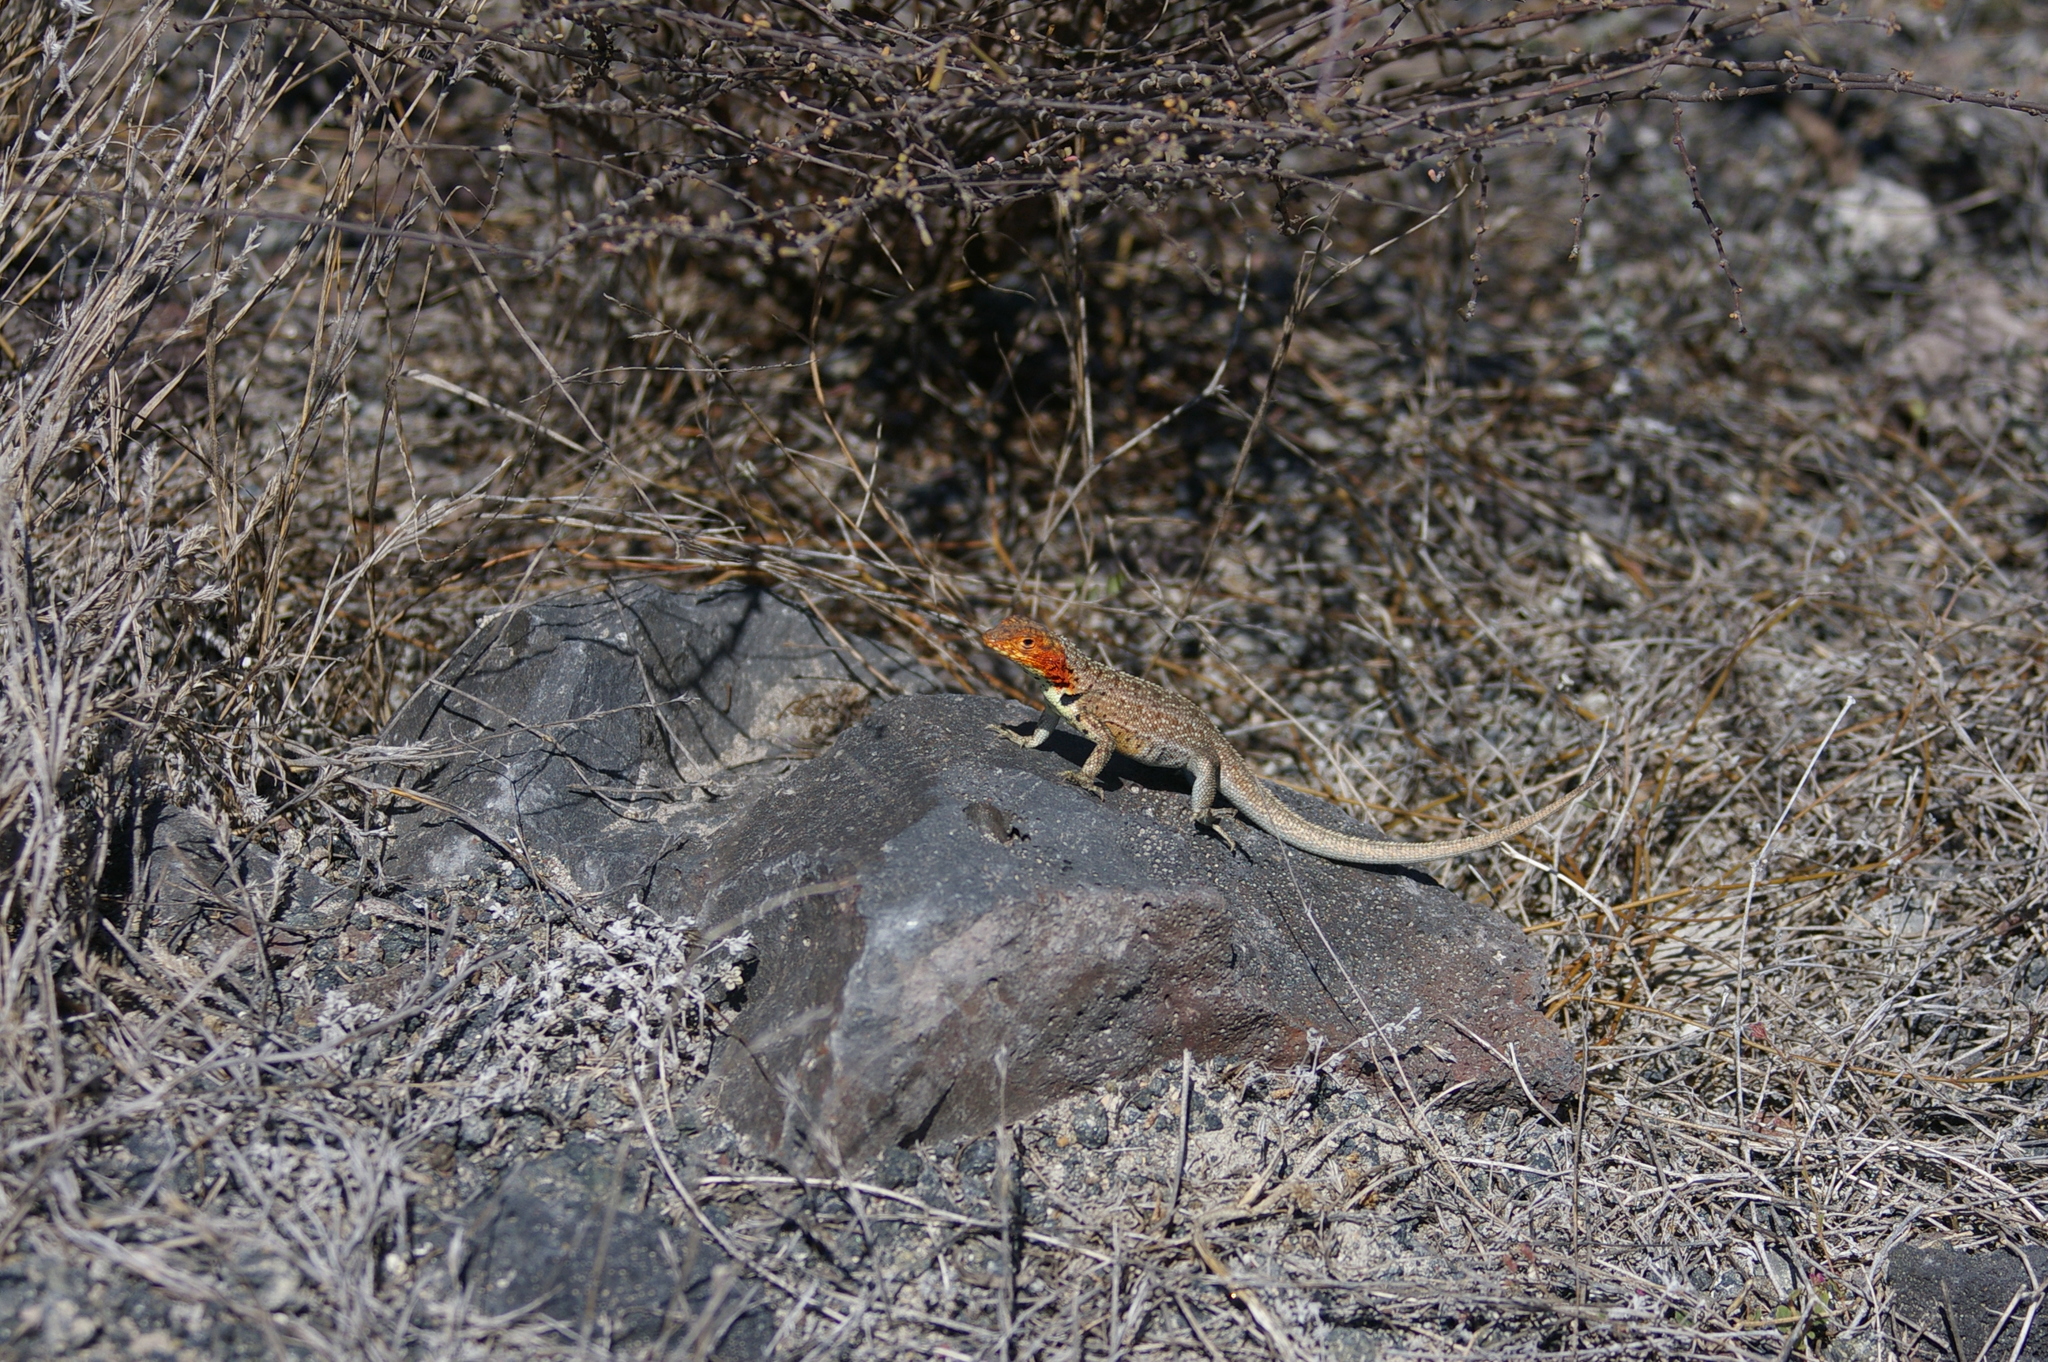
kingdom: Animalia
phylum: Chordata
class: Squamata
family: Tropiduridae
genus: Microlophus
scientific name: Microlophus albemarlensis
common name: Galapagos lava lizard
